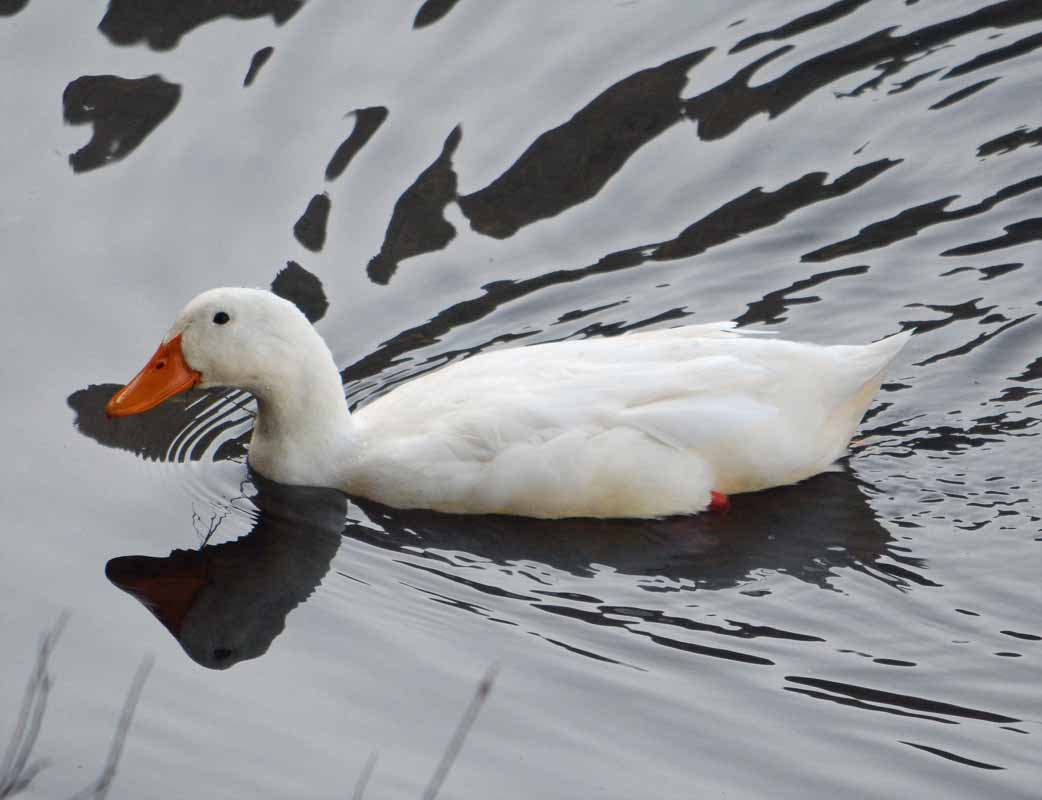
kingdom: Animalia
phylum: Chordata
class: Aves
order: Anseriformes
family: Anatidae
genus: Anas
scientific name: Anas platyrhynchos
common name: Mallard
